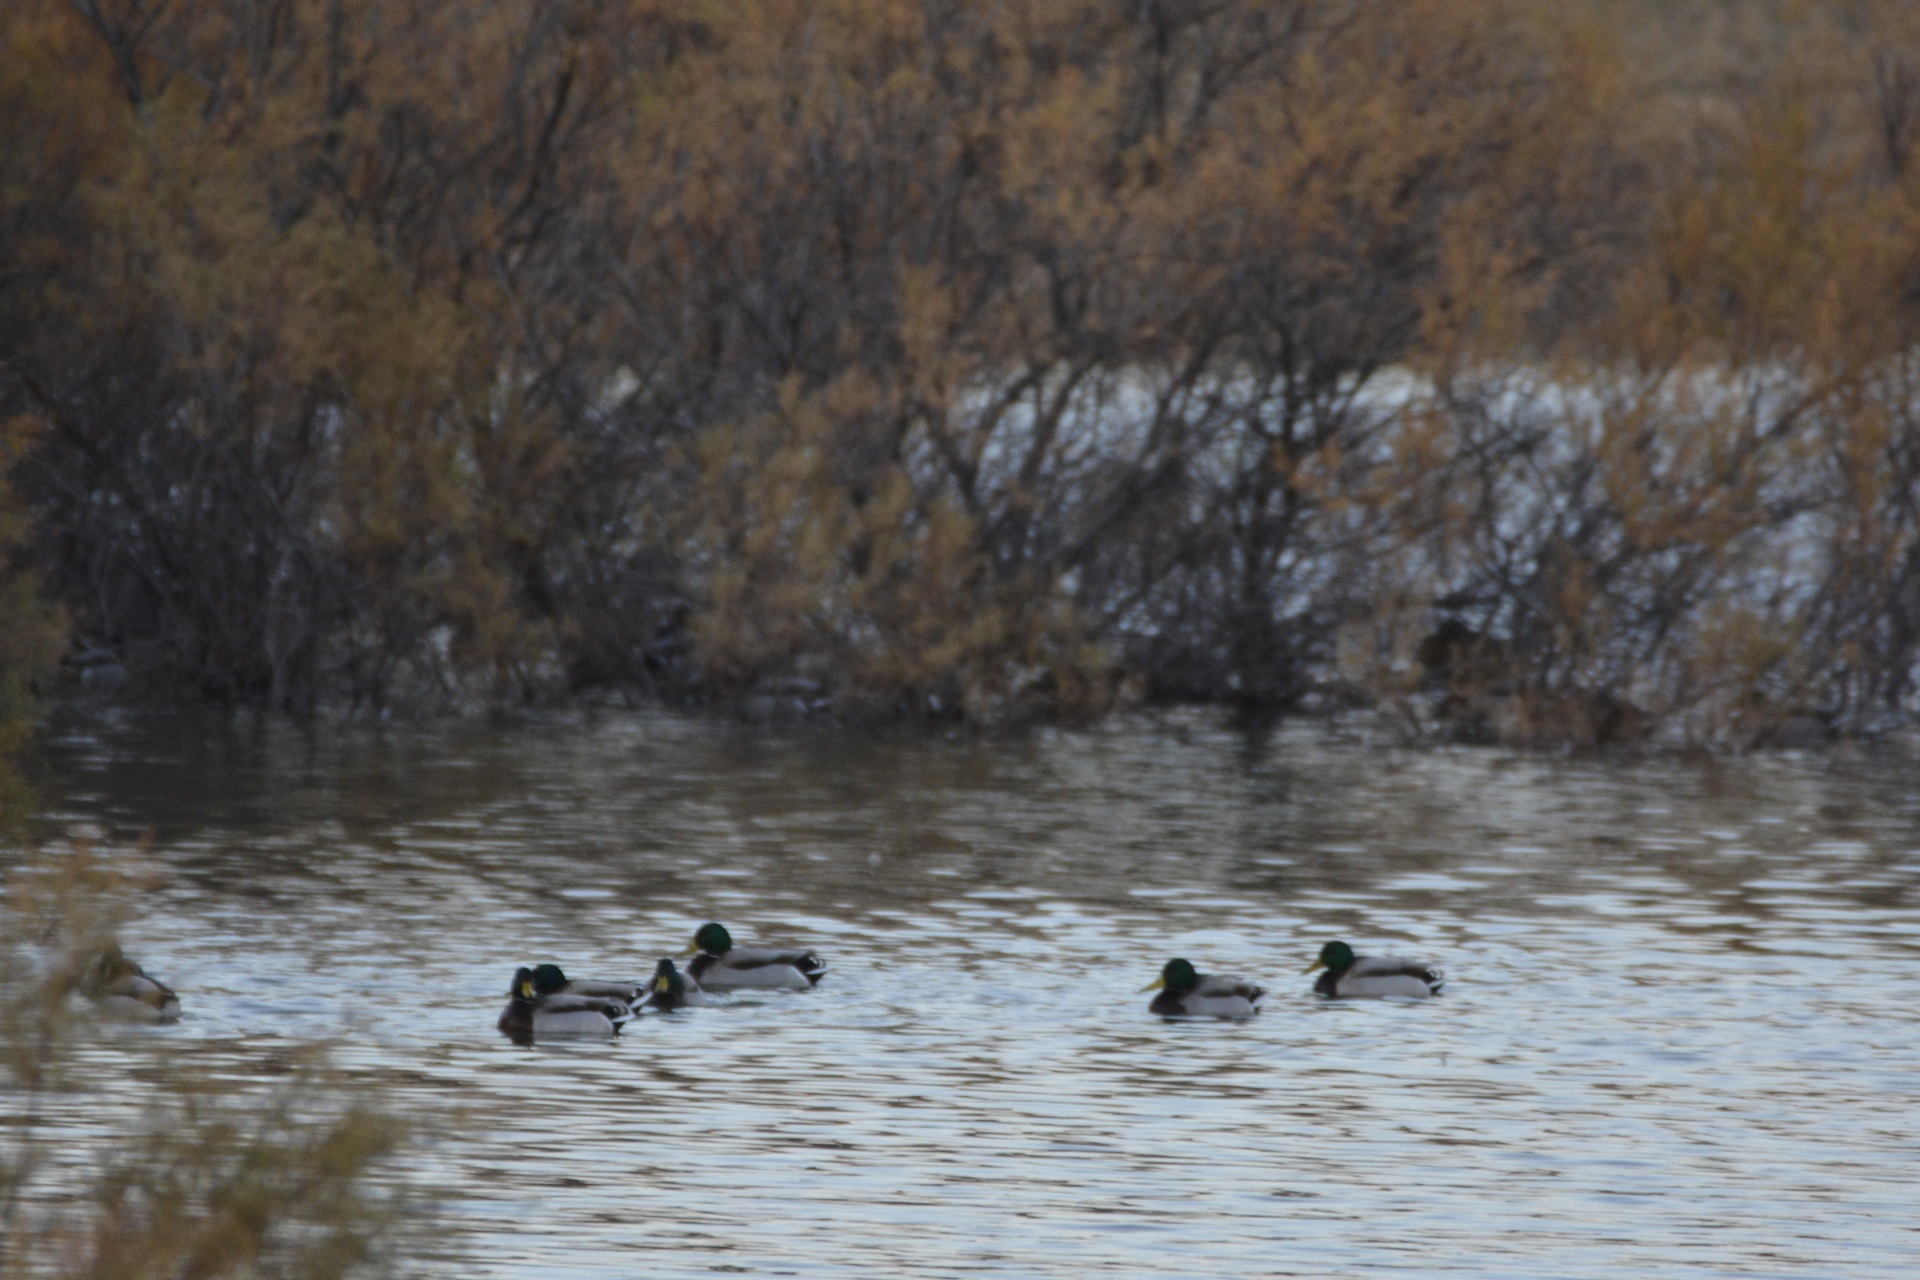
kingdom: Animalia
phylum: Chordata
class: Aves
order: Anseriformes
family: Anatidae
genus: Anas
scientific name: Anas platyrhynchos
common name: Mallard
